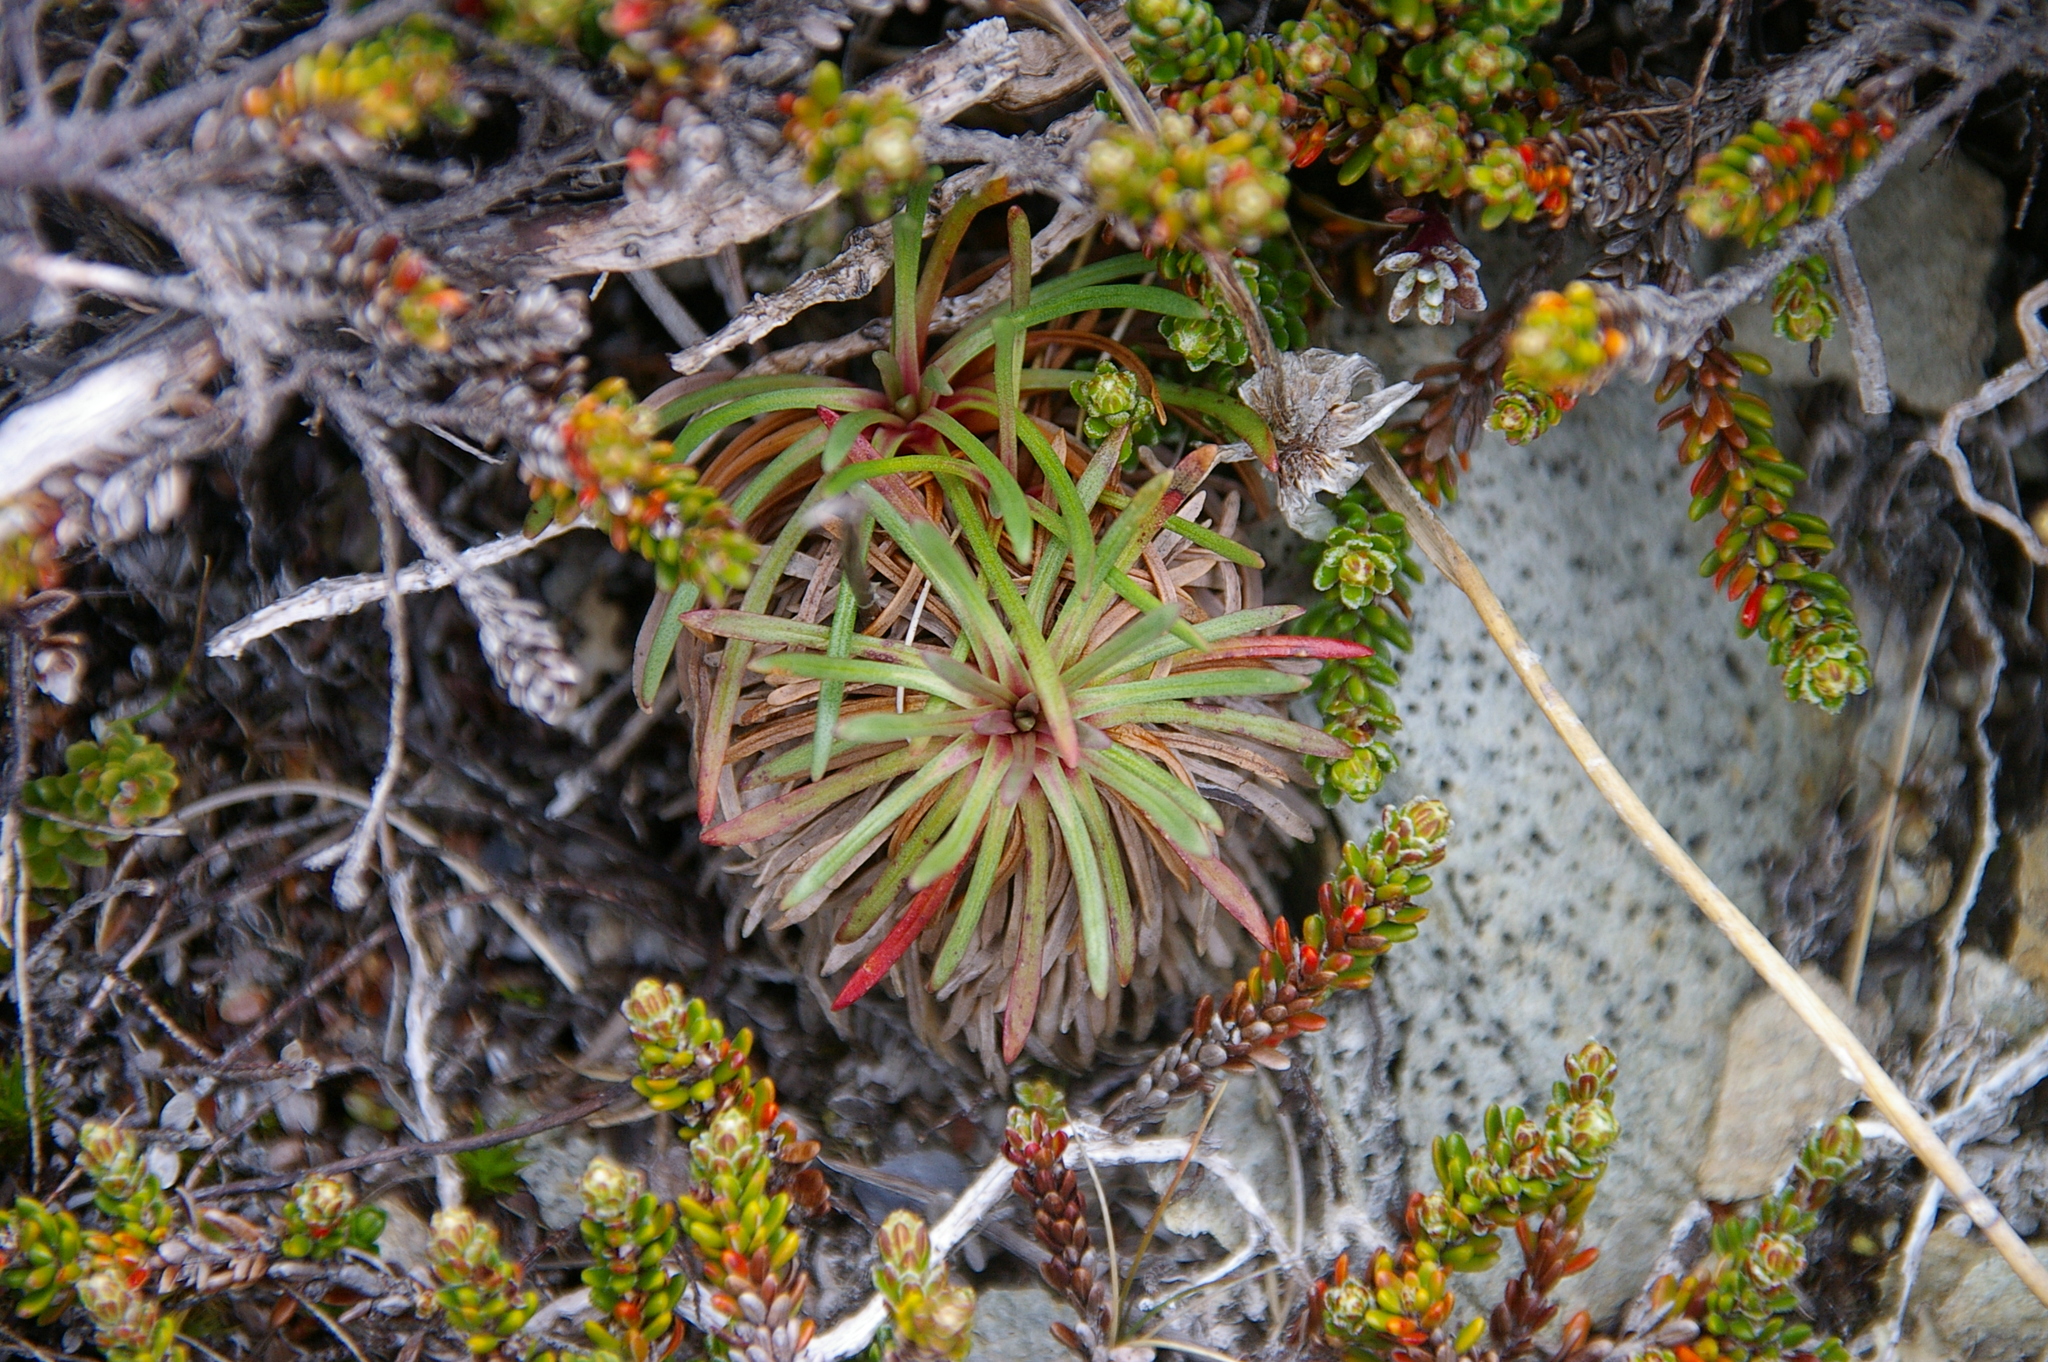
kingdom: Plantae
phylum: Tracheophyta
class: Magnoliopsida
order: Caryophyllales
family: Plumbaginaceae
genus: Armeria
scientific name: Armeria curvifolia
